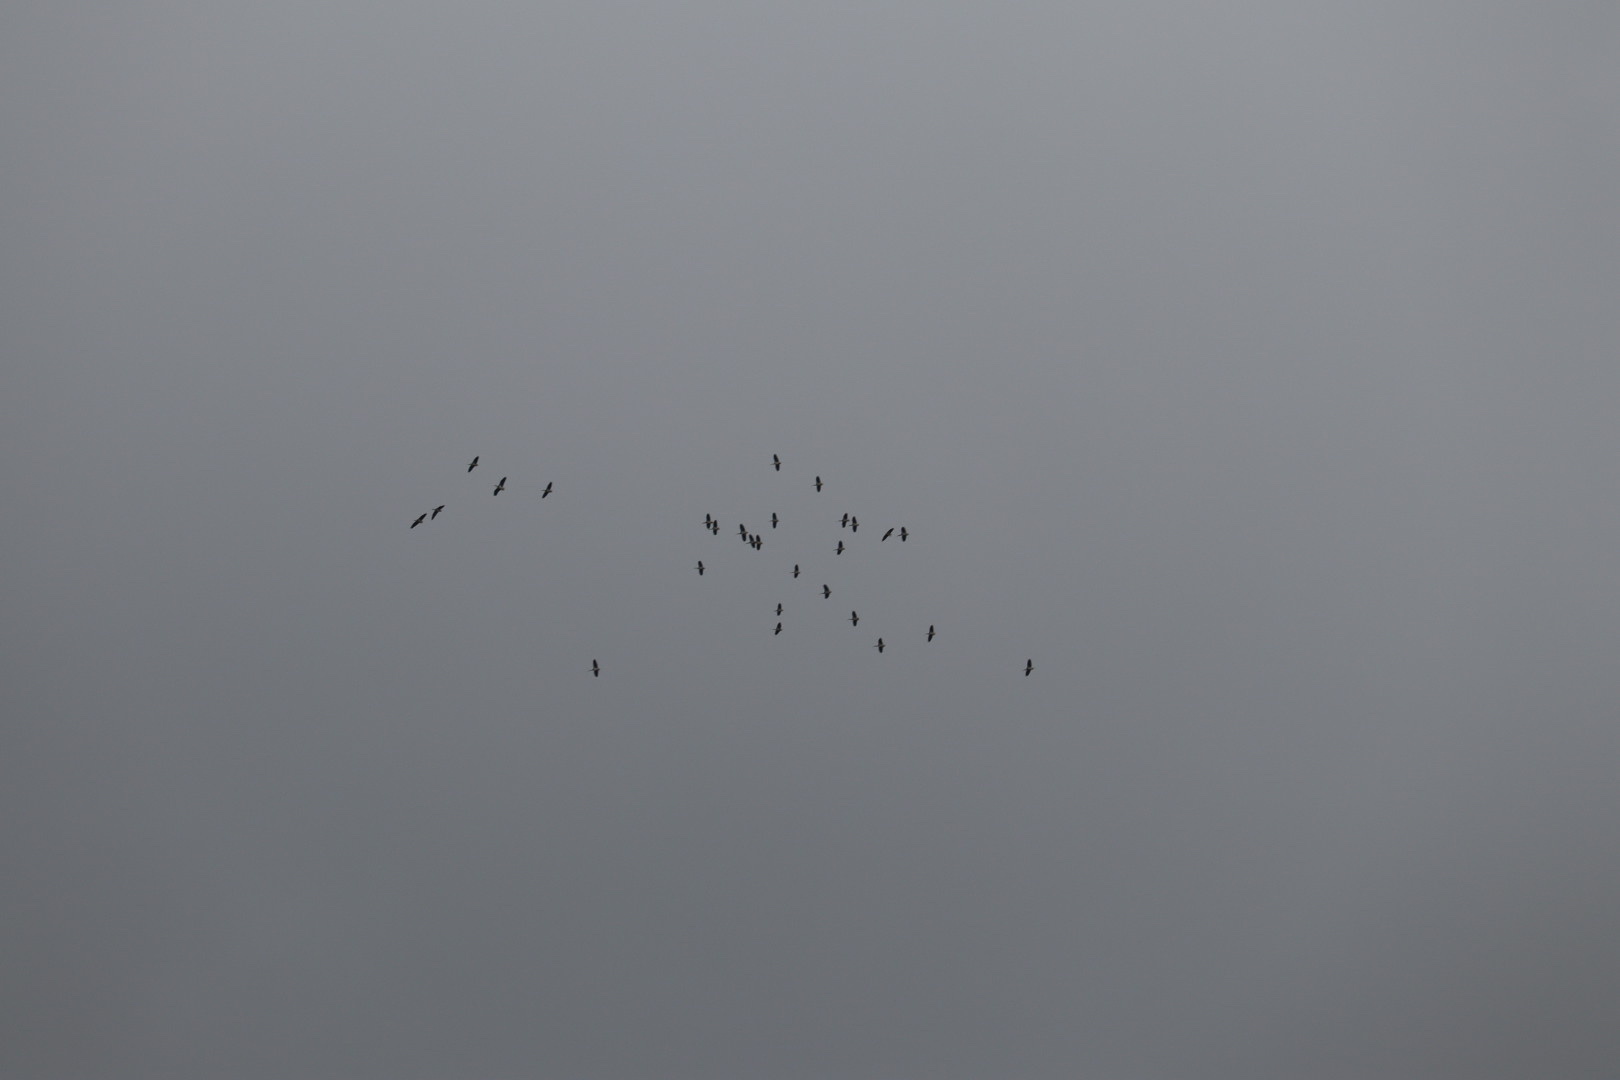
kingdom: Animalia
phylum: Chordata
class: Aves
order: Pelecaniformes
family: Threskiornithidae
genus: Threskiornis
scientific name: Threskiornis spinicollis
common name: Straw-necked ibis
